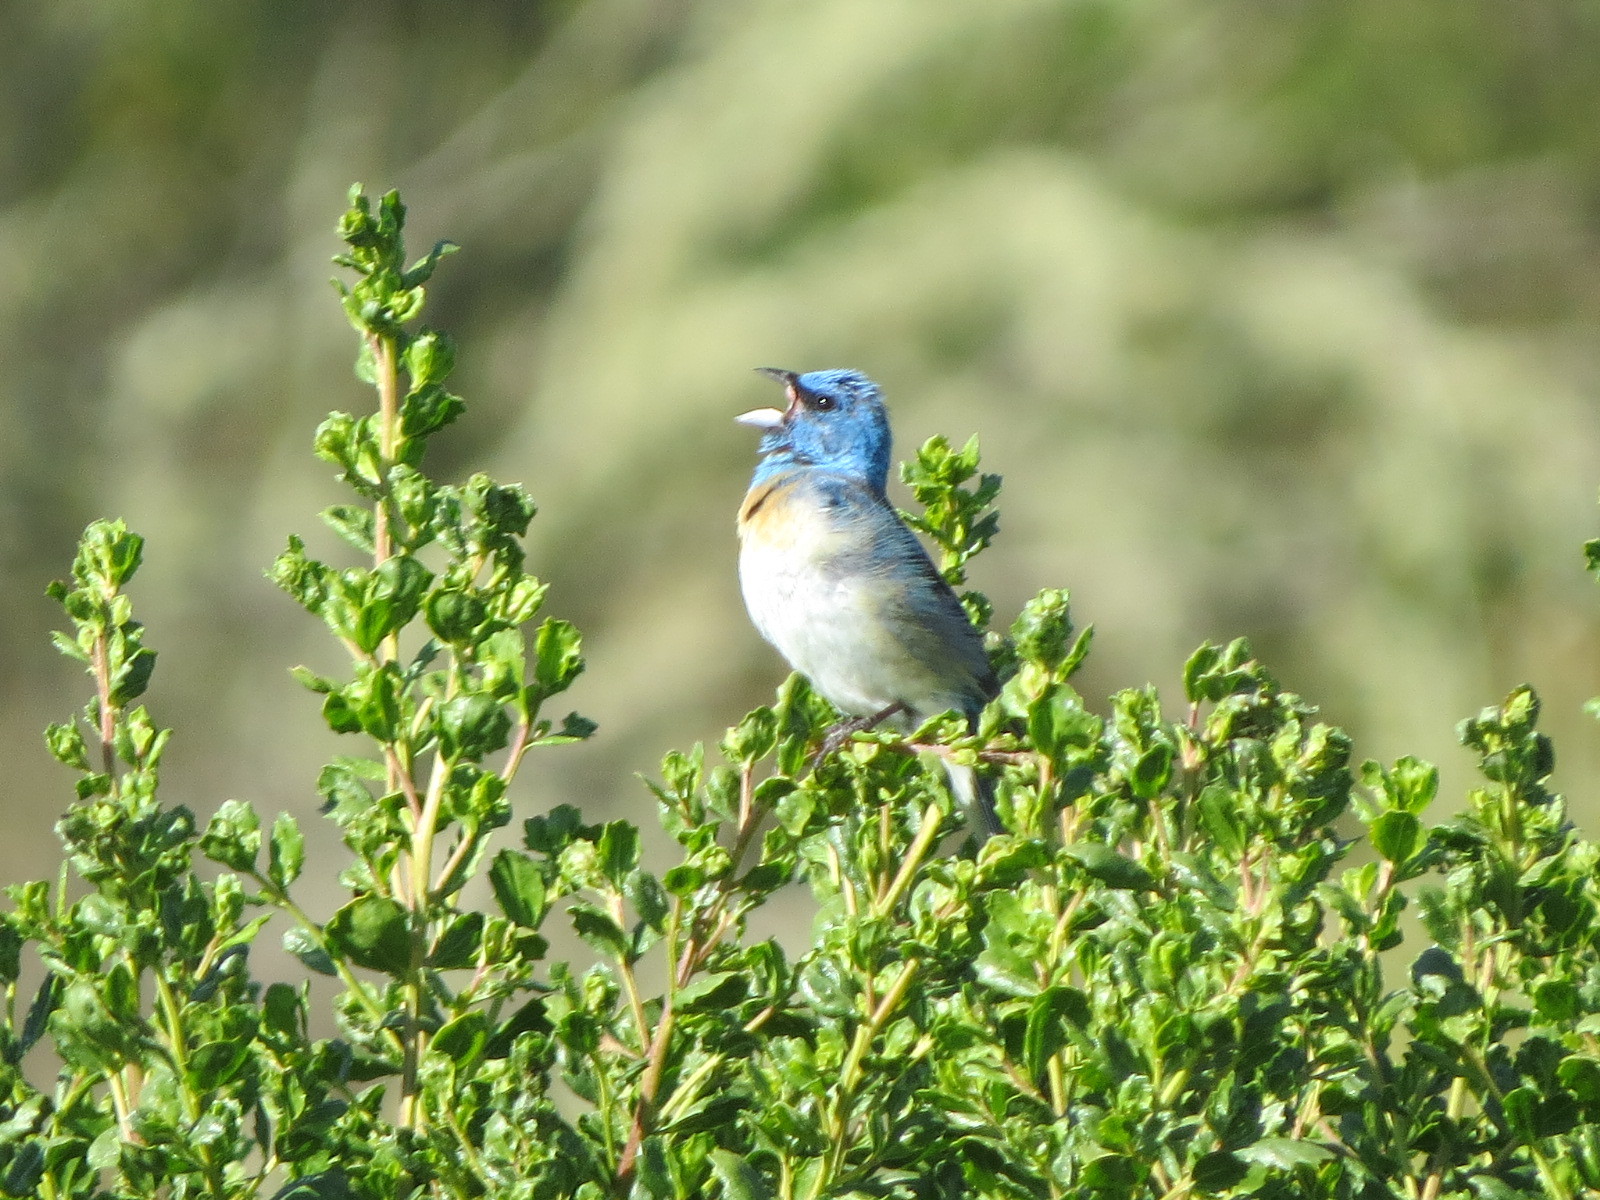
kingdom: Animalia
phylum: Chordata
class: Aves
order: Passeriformes
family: Cardinalidae
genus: Passerina
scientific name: Passerina amoena
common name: Lazuli bunting
